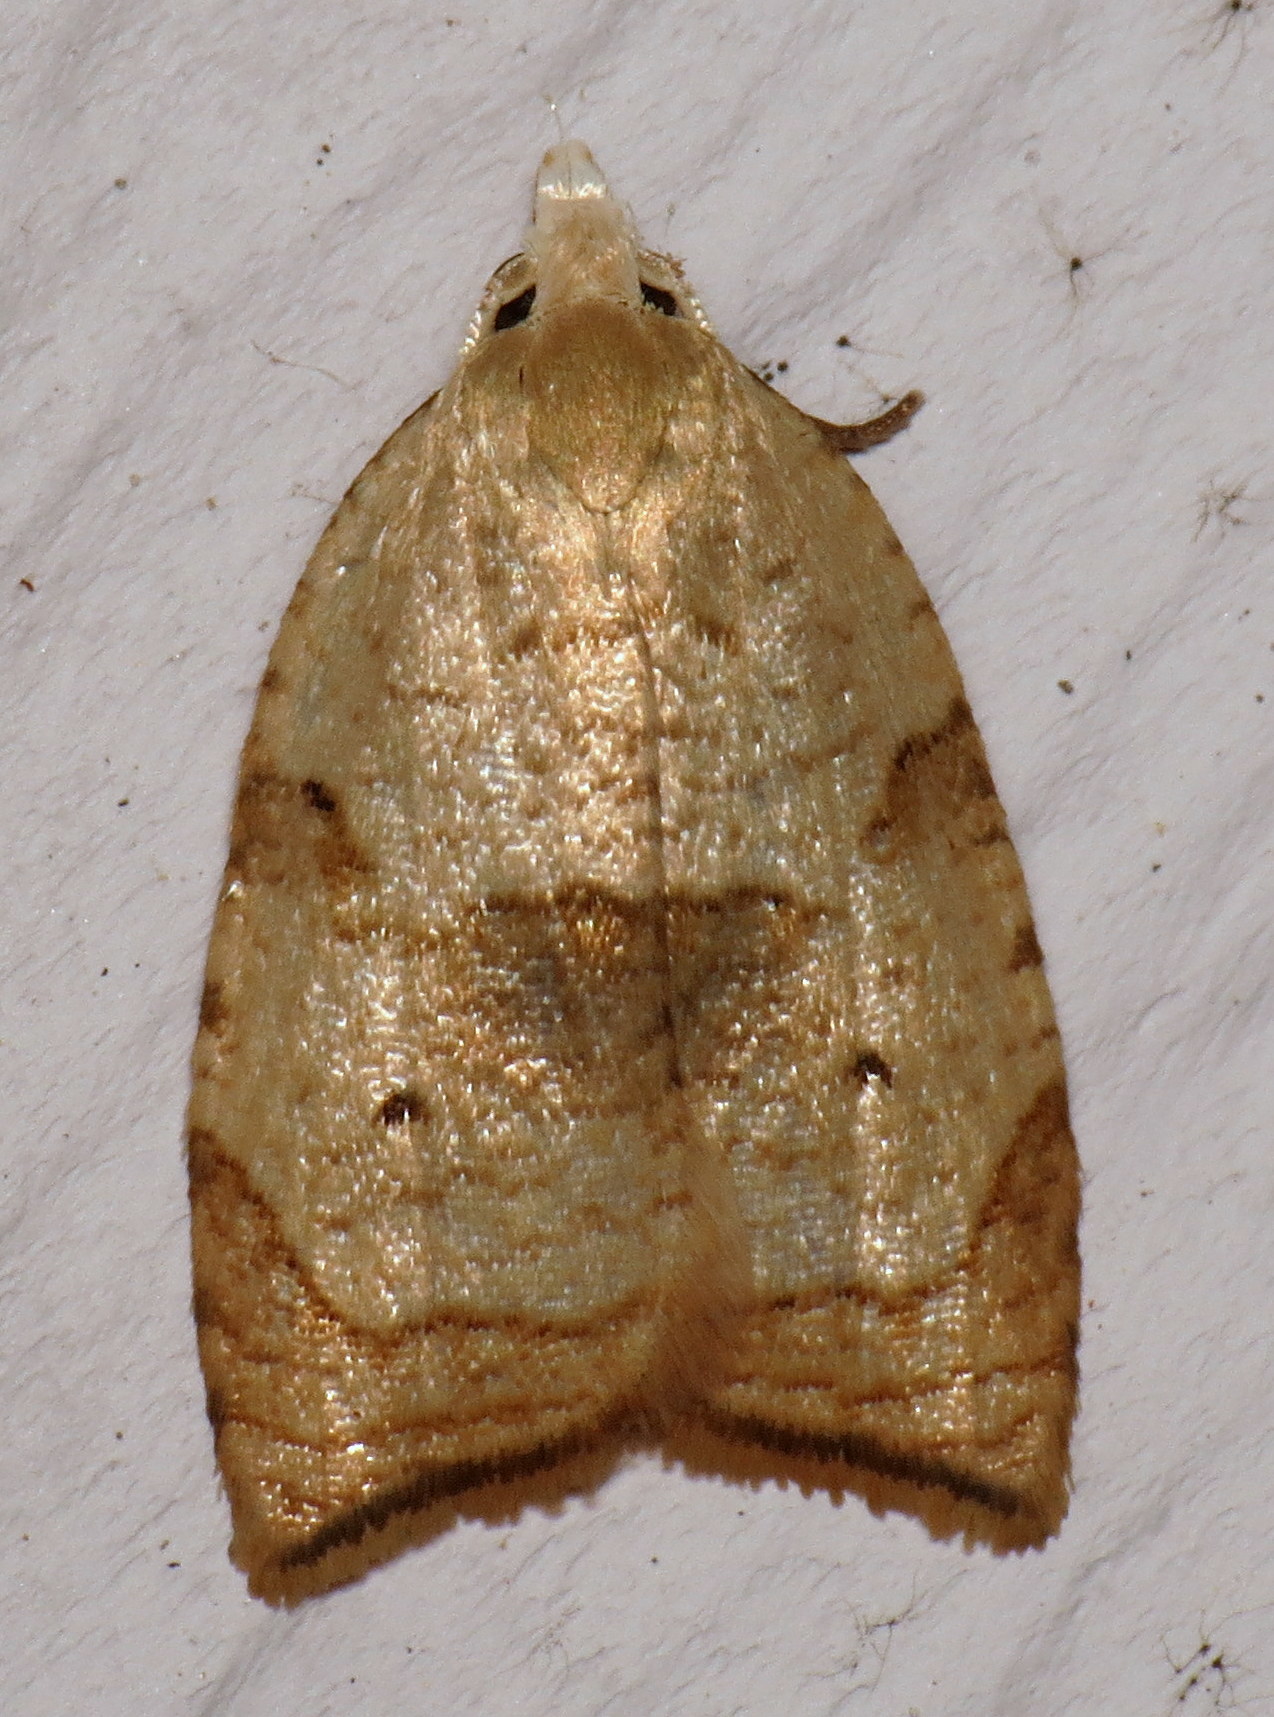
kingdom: Animalia
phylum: Arthropoda
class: Insecta
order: Lepidoptera
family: Tortricidae
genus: Coelostathma
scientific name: Coelostathma discopunctana
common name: Batman moth
